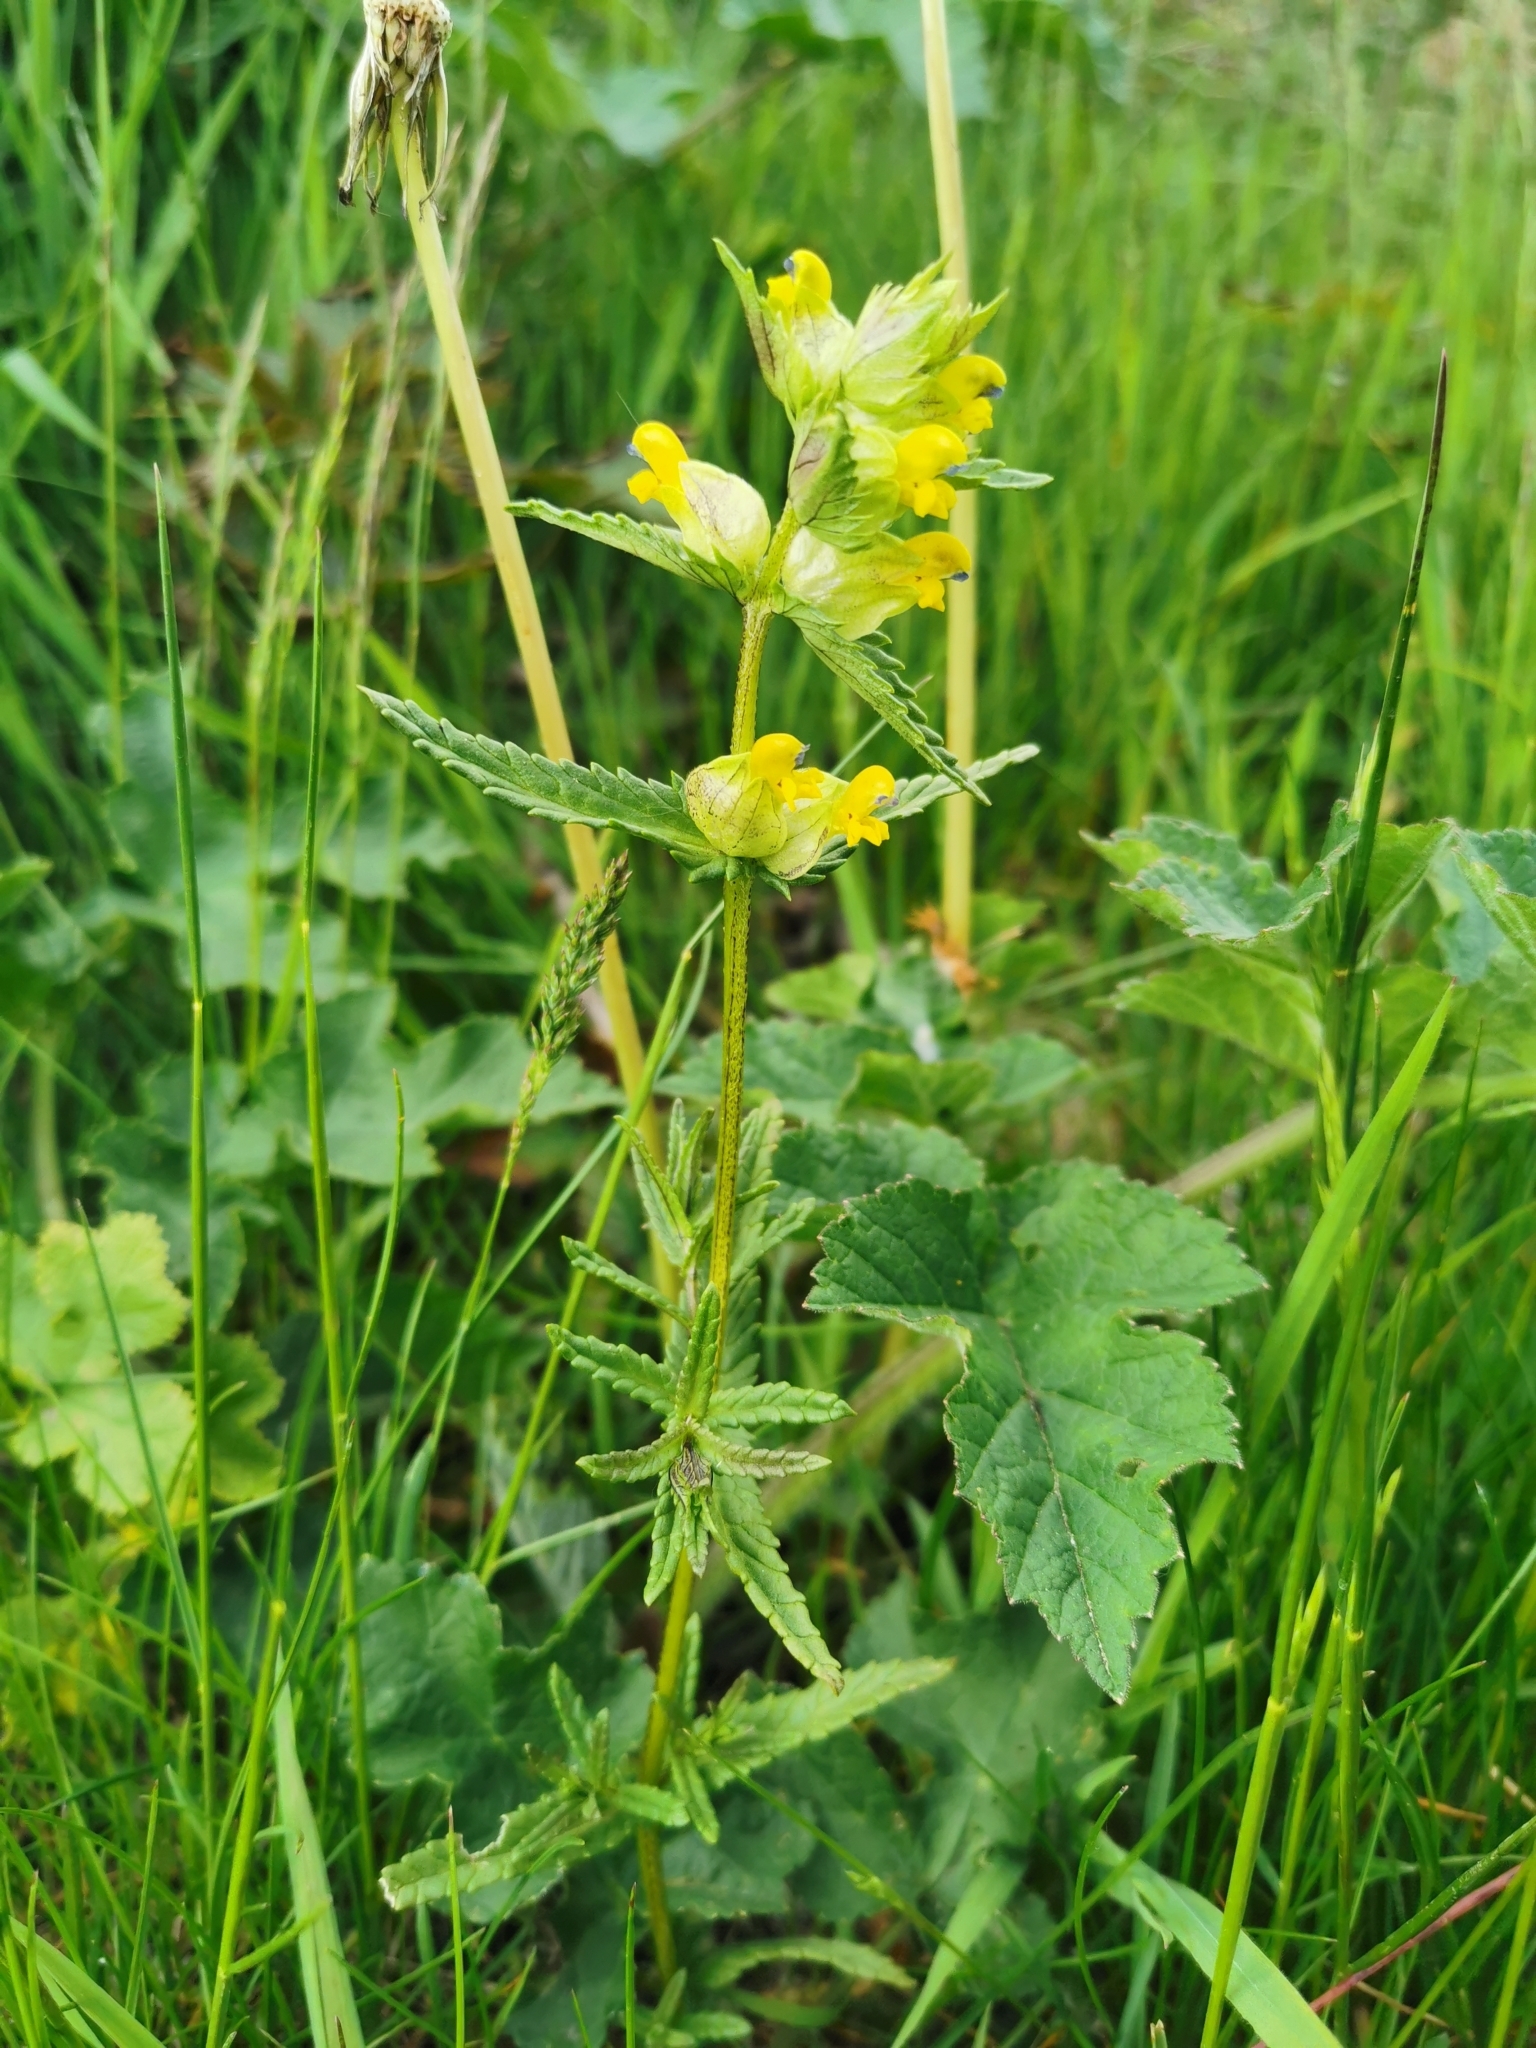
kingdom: Plantae
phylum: Tracheophyta
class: Magnoliopsida
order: Lamiales
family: Orobanchaceae
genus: Rhinanthus
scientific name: Rhinanthus minor
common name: Yellow-rattle
